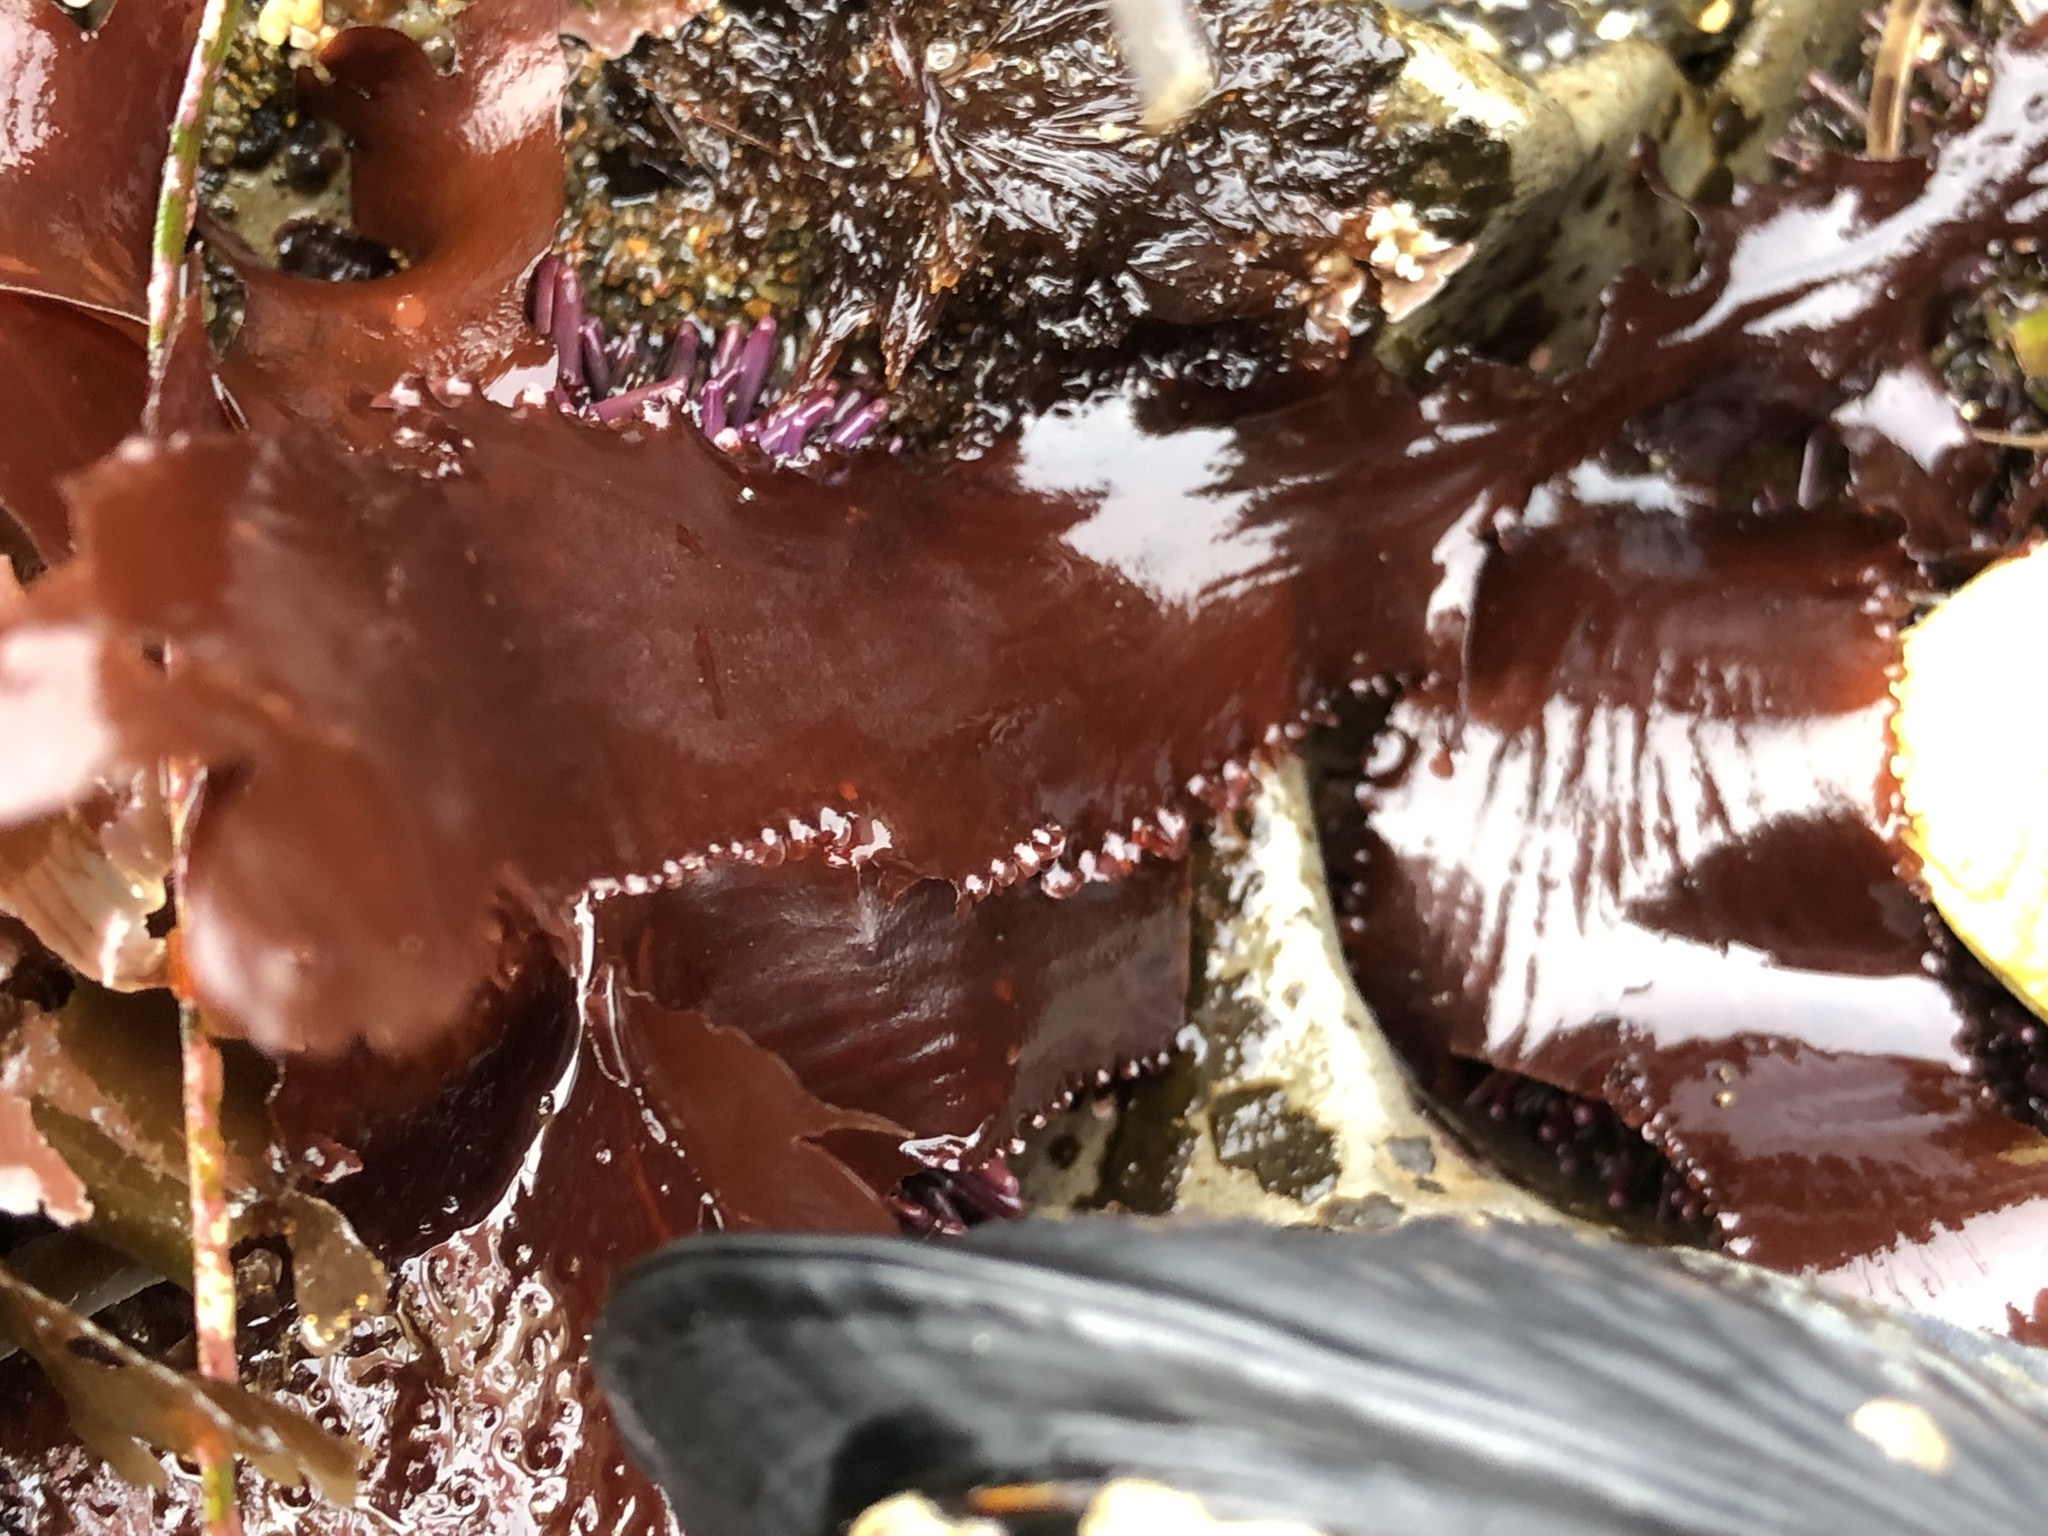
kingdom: Plantae
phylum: Rhodophyta
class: Florideophyceae
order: Ceramiales
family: Delesseriaceae
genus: Cryptopleura
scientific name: Cryptopleura ruprechtiana
